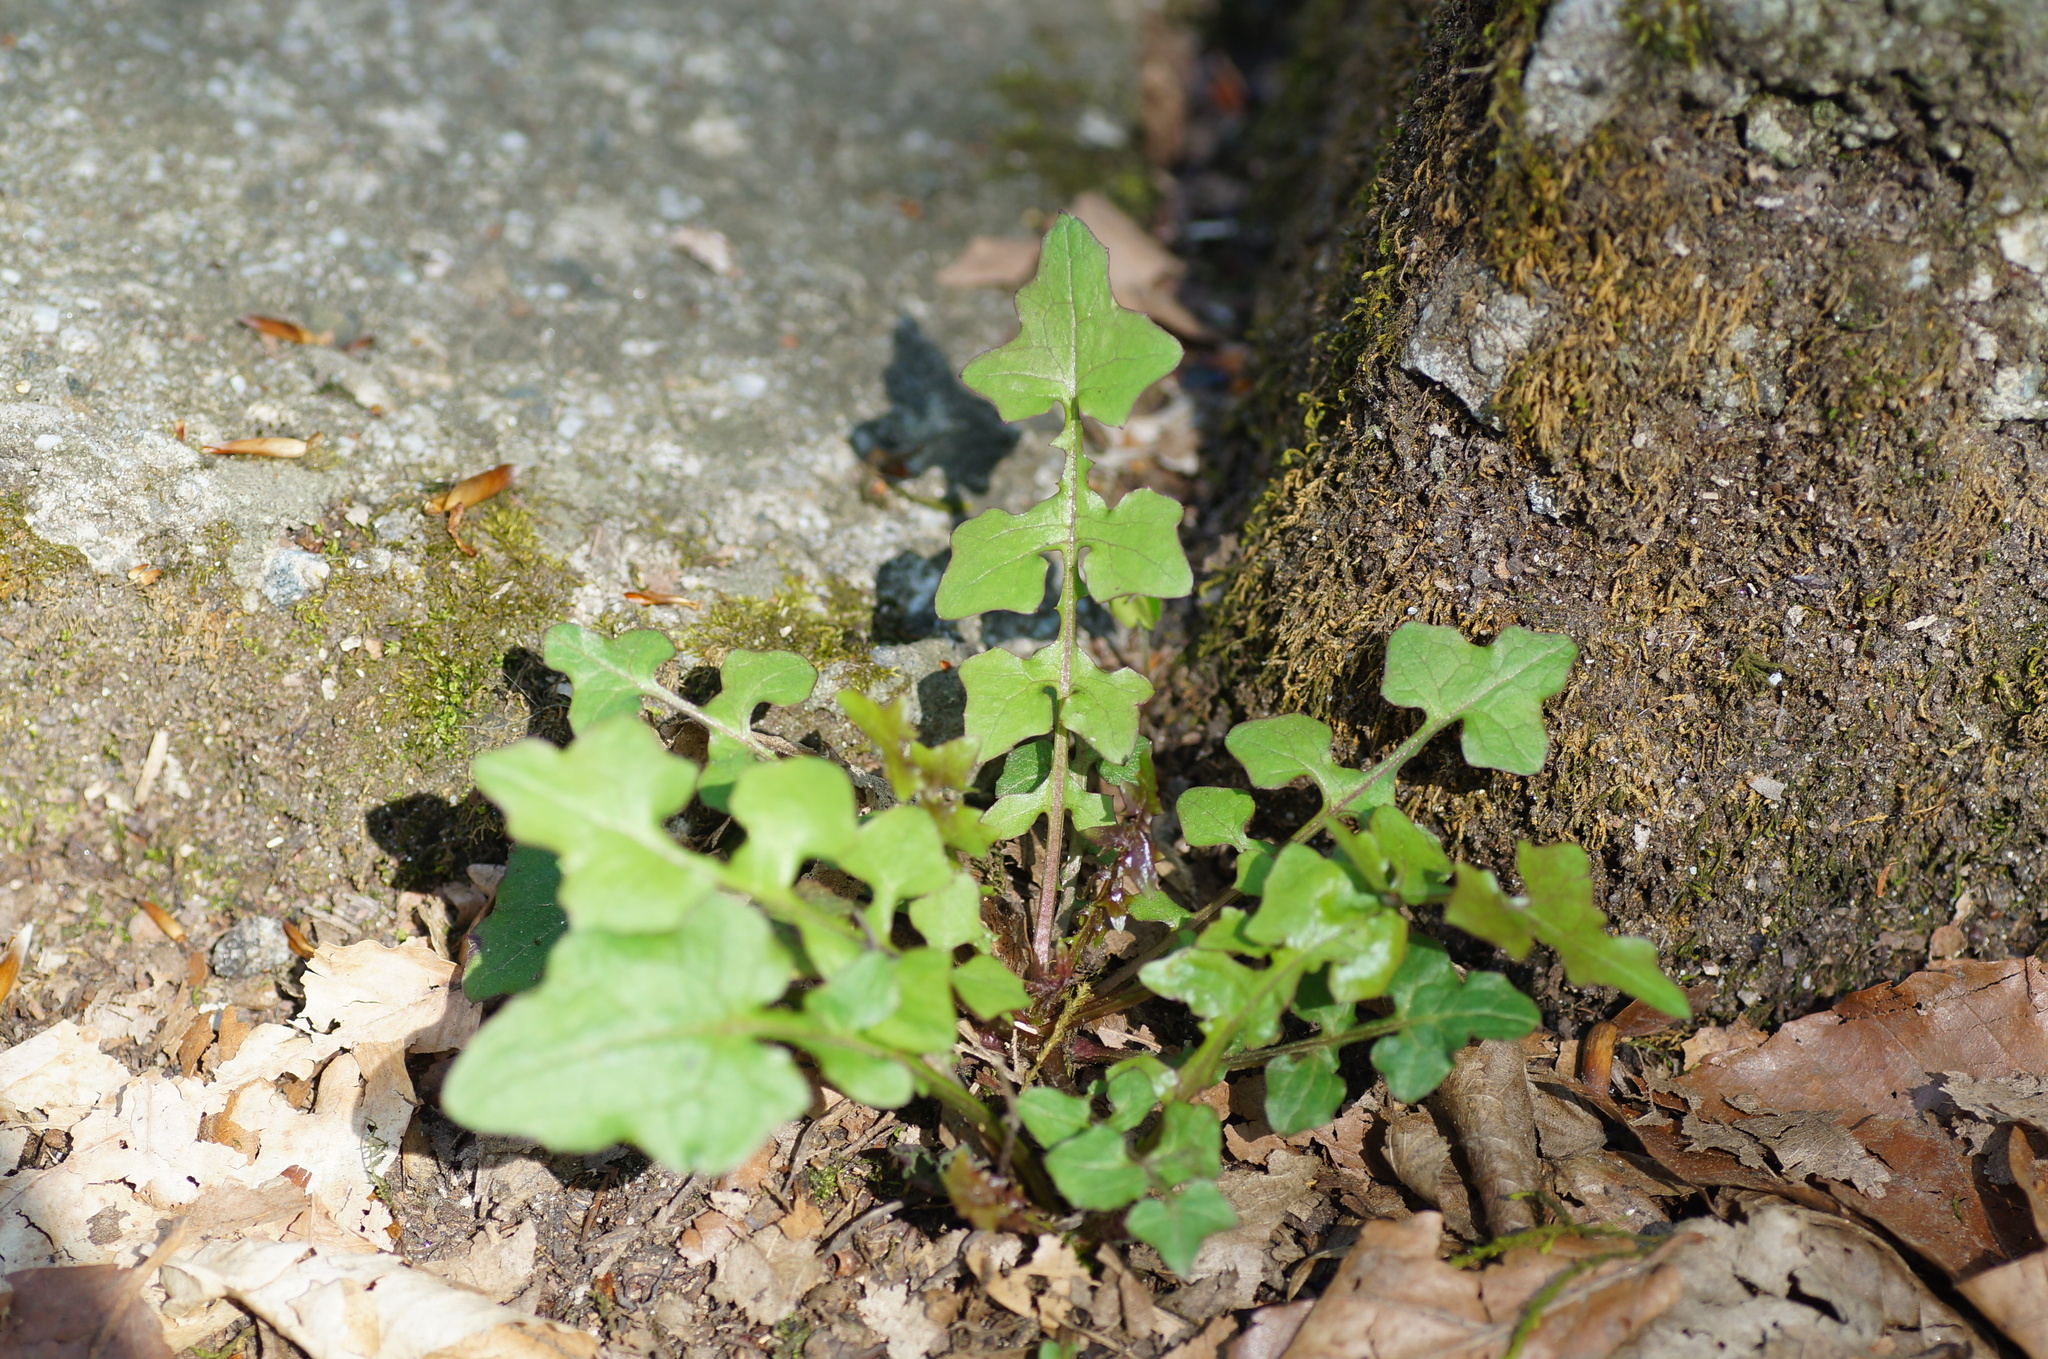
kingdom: Plantae
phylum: Tracheophyta
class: Magnoliopsida
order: Asterales
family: Asteraceae
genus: Mycelis
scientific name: Mycelis muralis
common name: Wall lettuce
